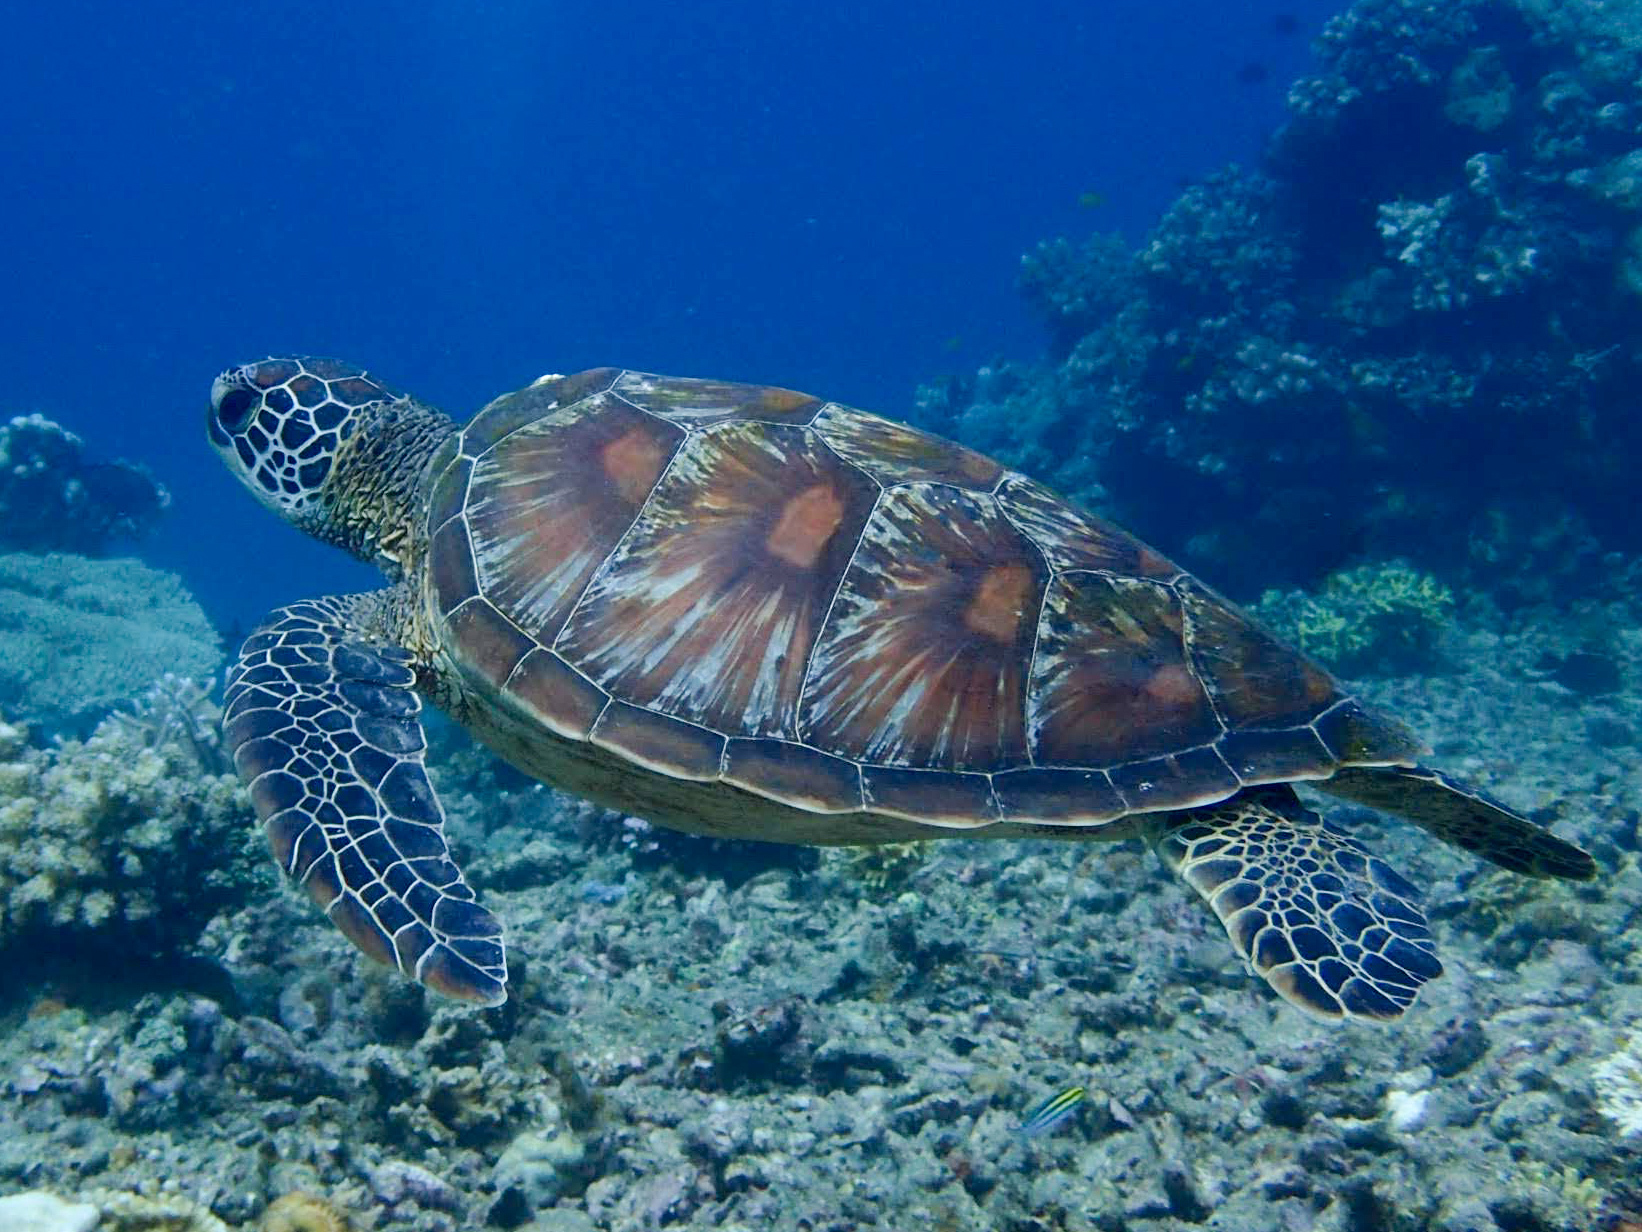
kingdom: Animalia
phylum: Chordata
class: Testudines
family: Cheloniidae
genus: Chelonia
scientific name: Chelonia mydas
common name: Green turtle
